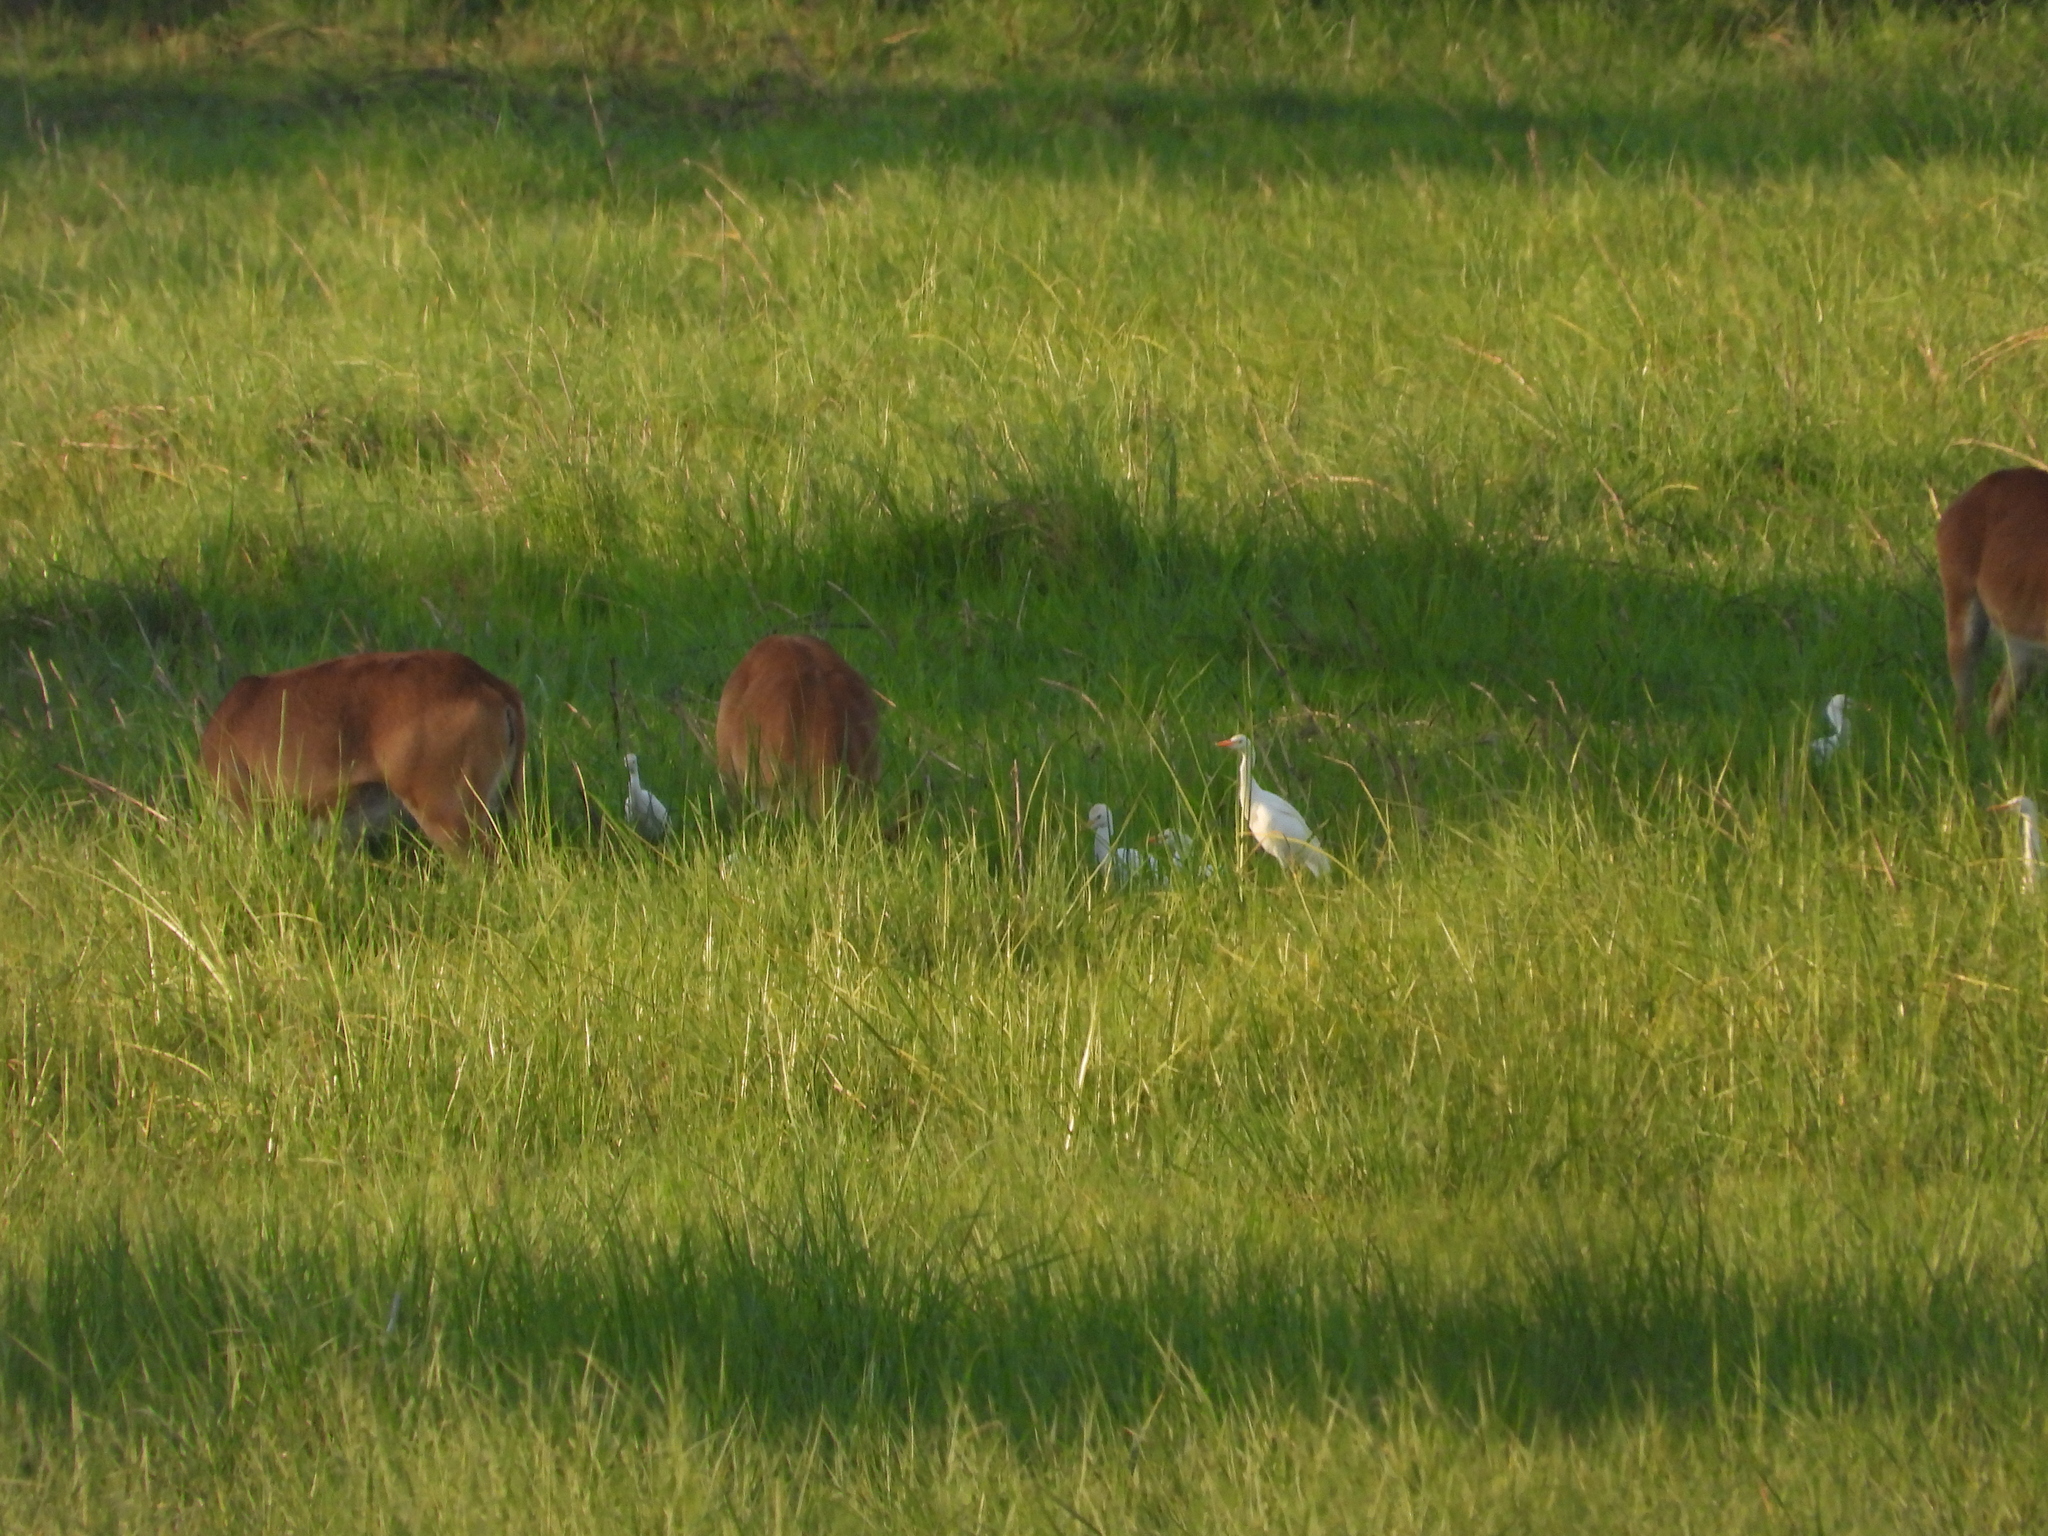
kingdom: Animalia
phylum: Chordata
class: Aves
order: Pelecaniformes
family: Ardeidae
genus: Bubulcus
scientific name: Bubulcus ibis
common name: Cattle egret
